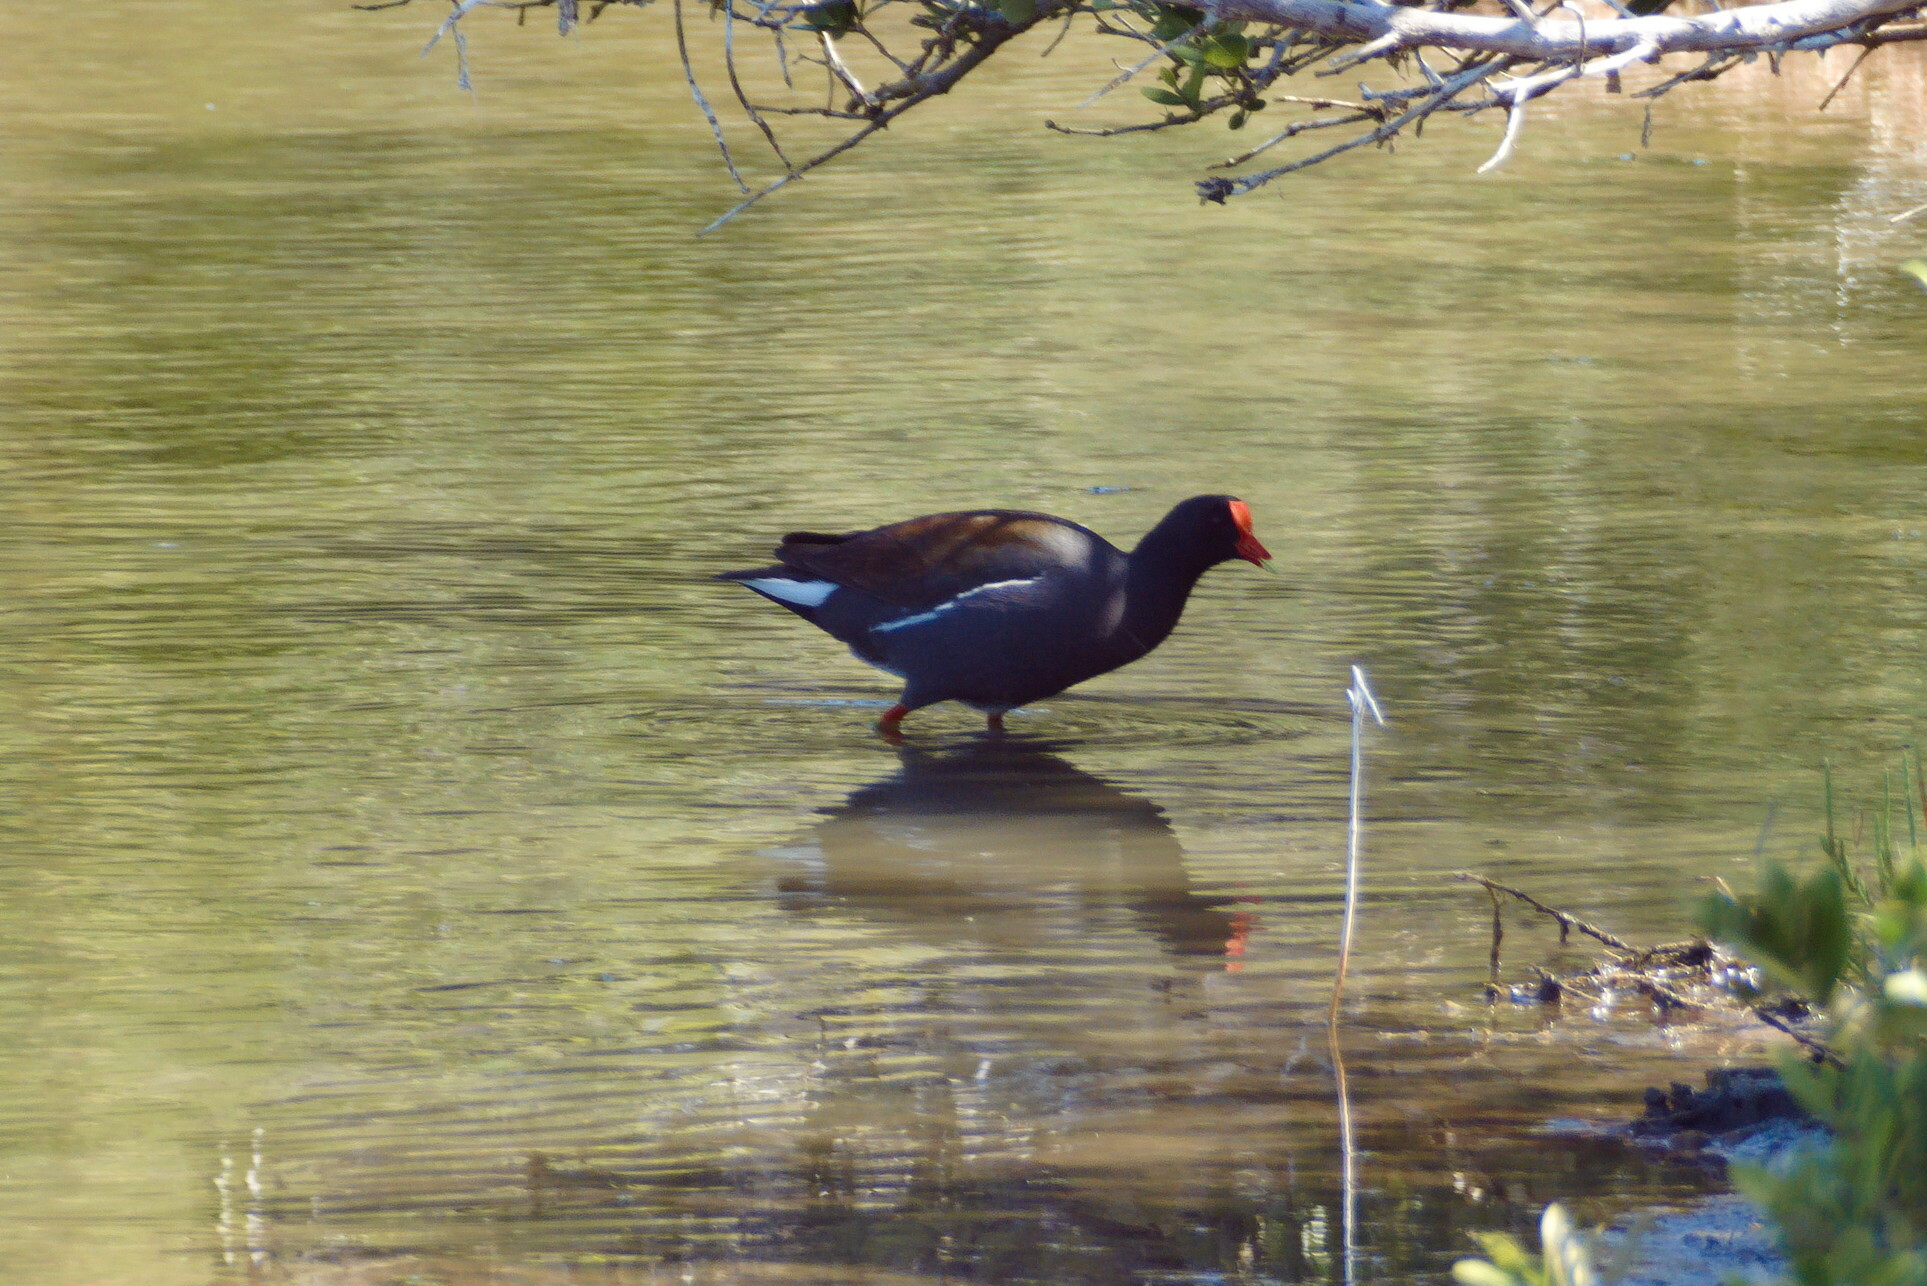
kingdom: Animalia
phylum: Chordata
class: Aves
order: Gruiformes
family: Rallidae
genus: Gallinula
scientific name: Gallinula chloropus
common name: Common moorhen
